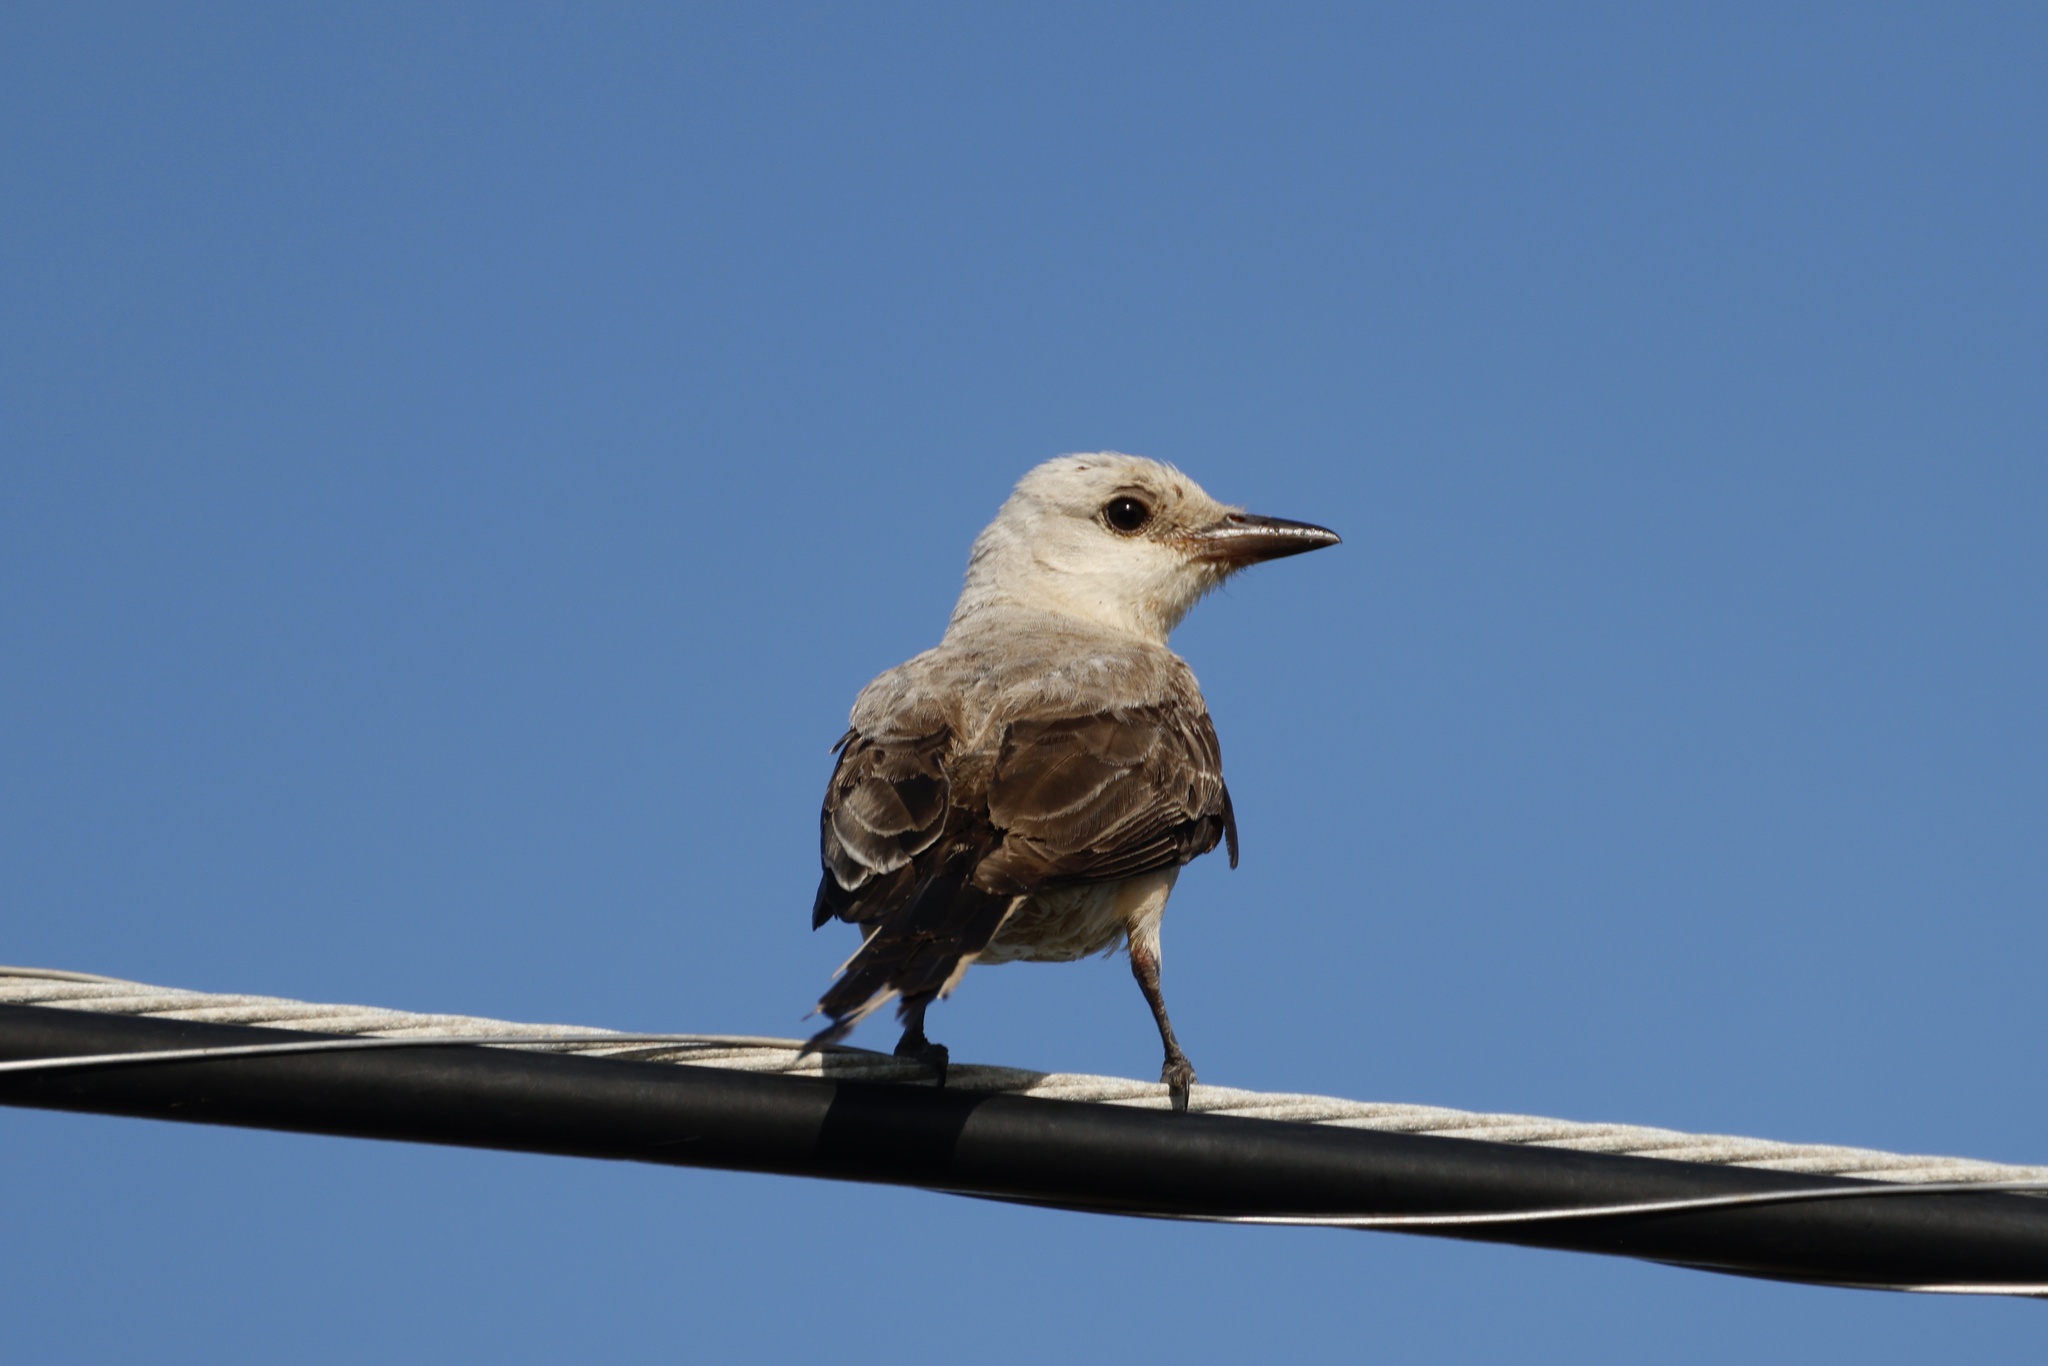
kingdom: Animalia
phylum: Chordata
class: Aves
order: Passeriformes
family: Tyrannidae
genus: Tyrannus
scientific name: Tyrannus forficatus
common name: Scissor-tailed flycatcher
